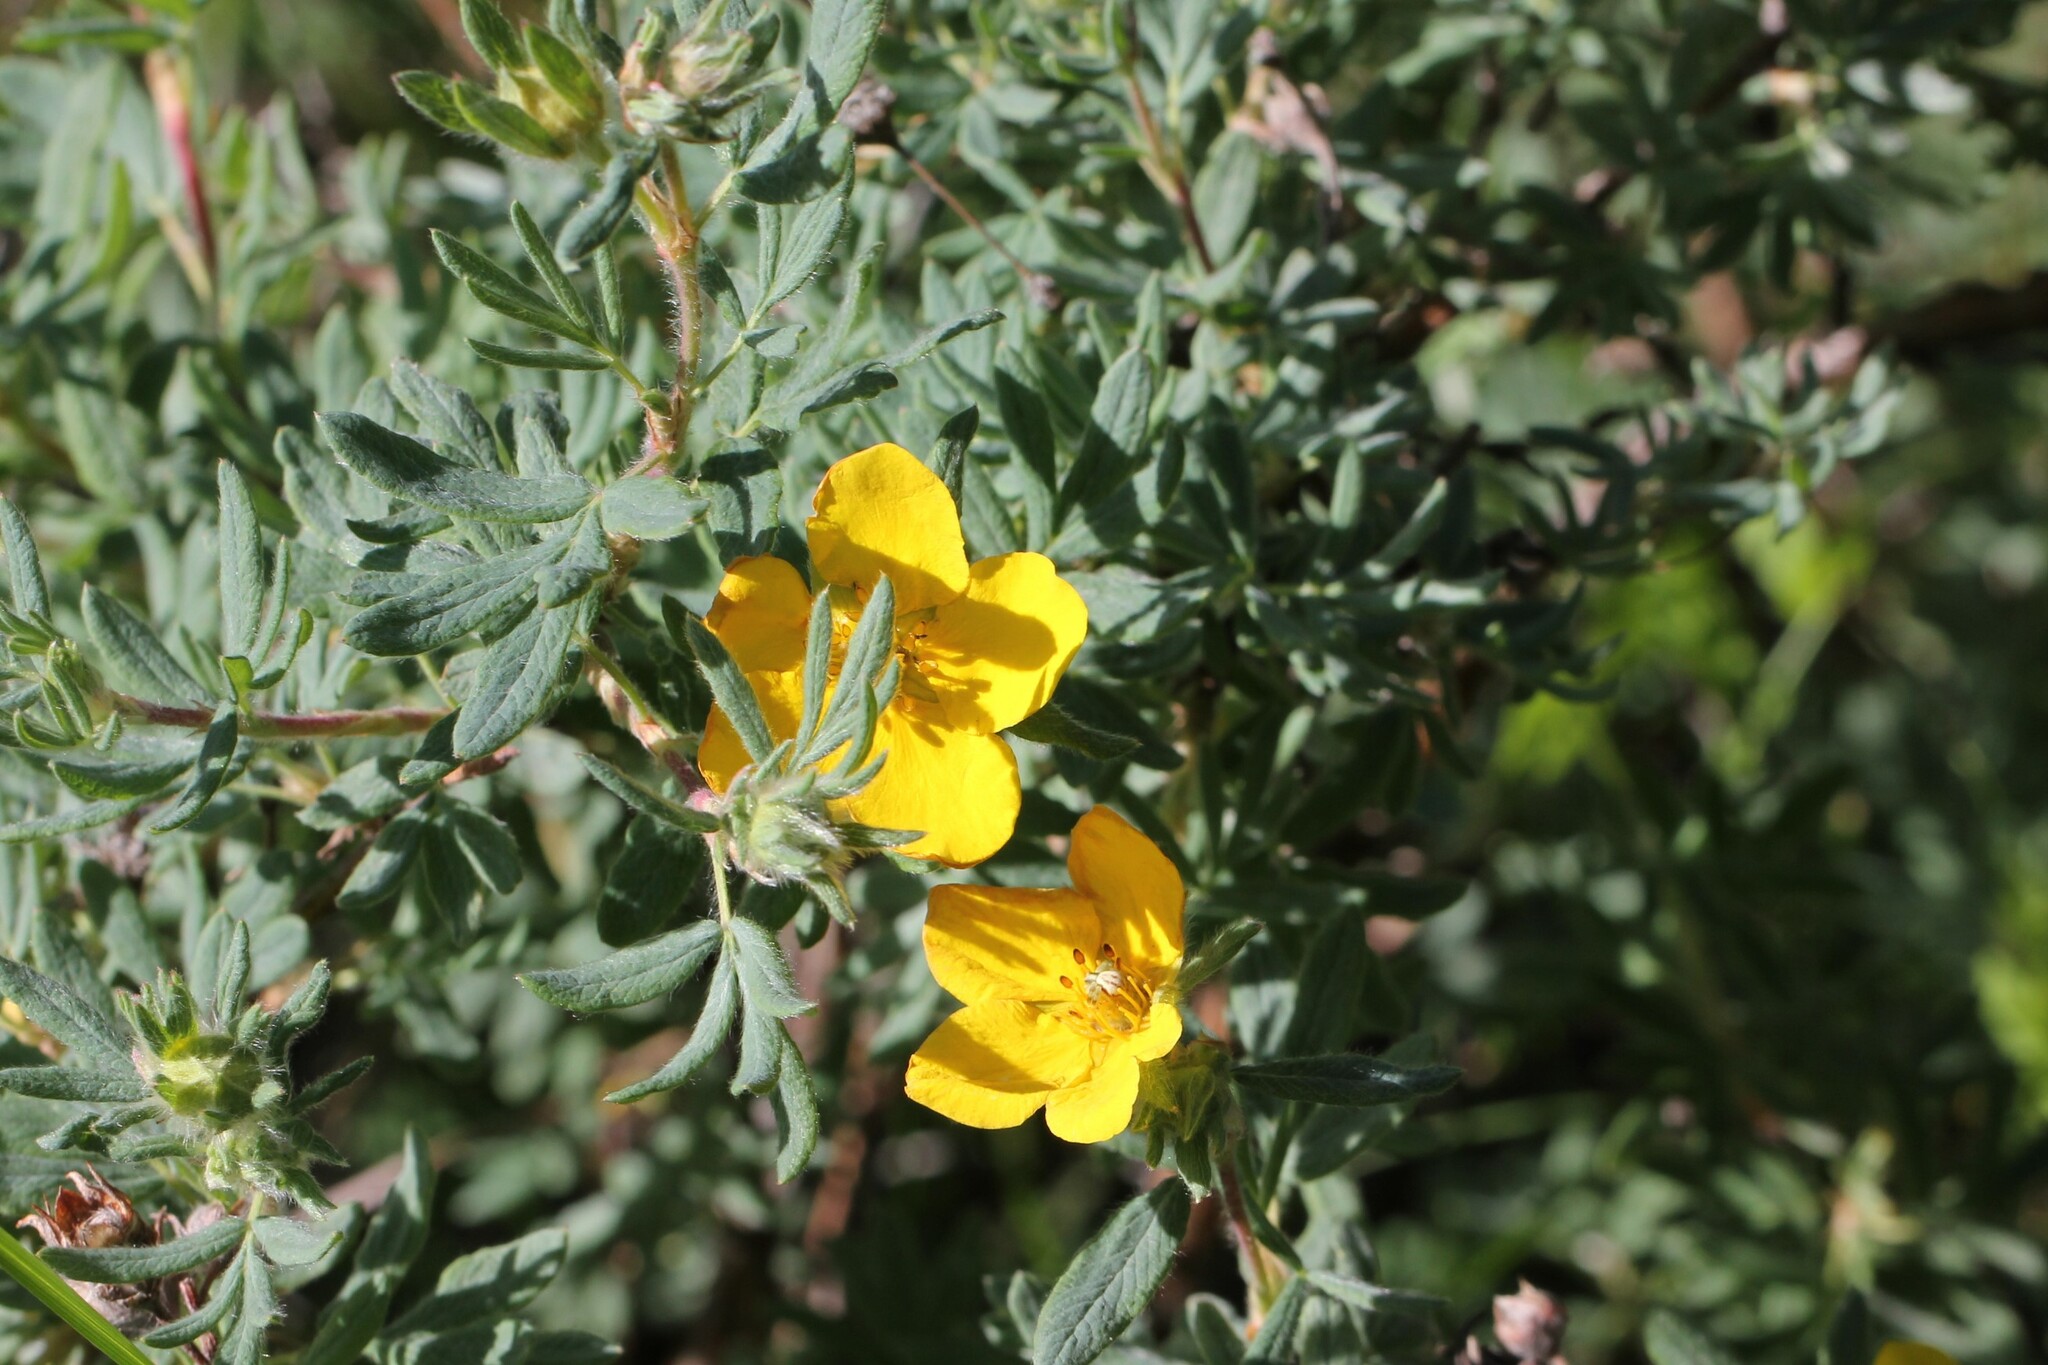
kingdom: Plantae
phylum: Tracheophyta
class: Magnoliopsida
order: Rosales
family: Rosaceae
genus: Dasiphora
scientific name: Dasiphora fruticosa
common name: Shrubby cinquefoil
